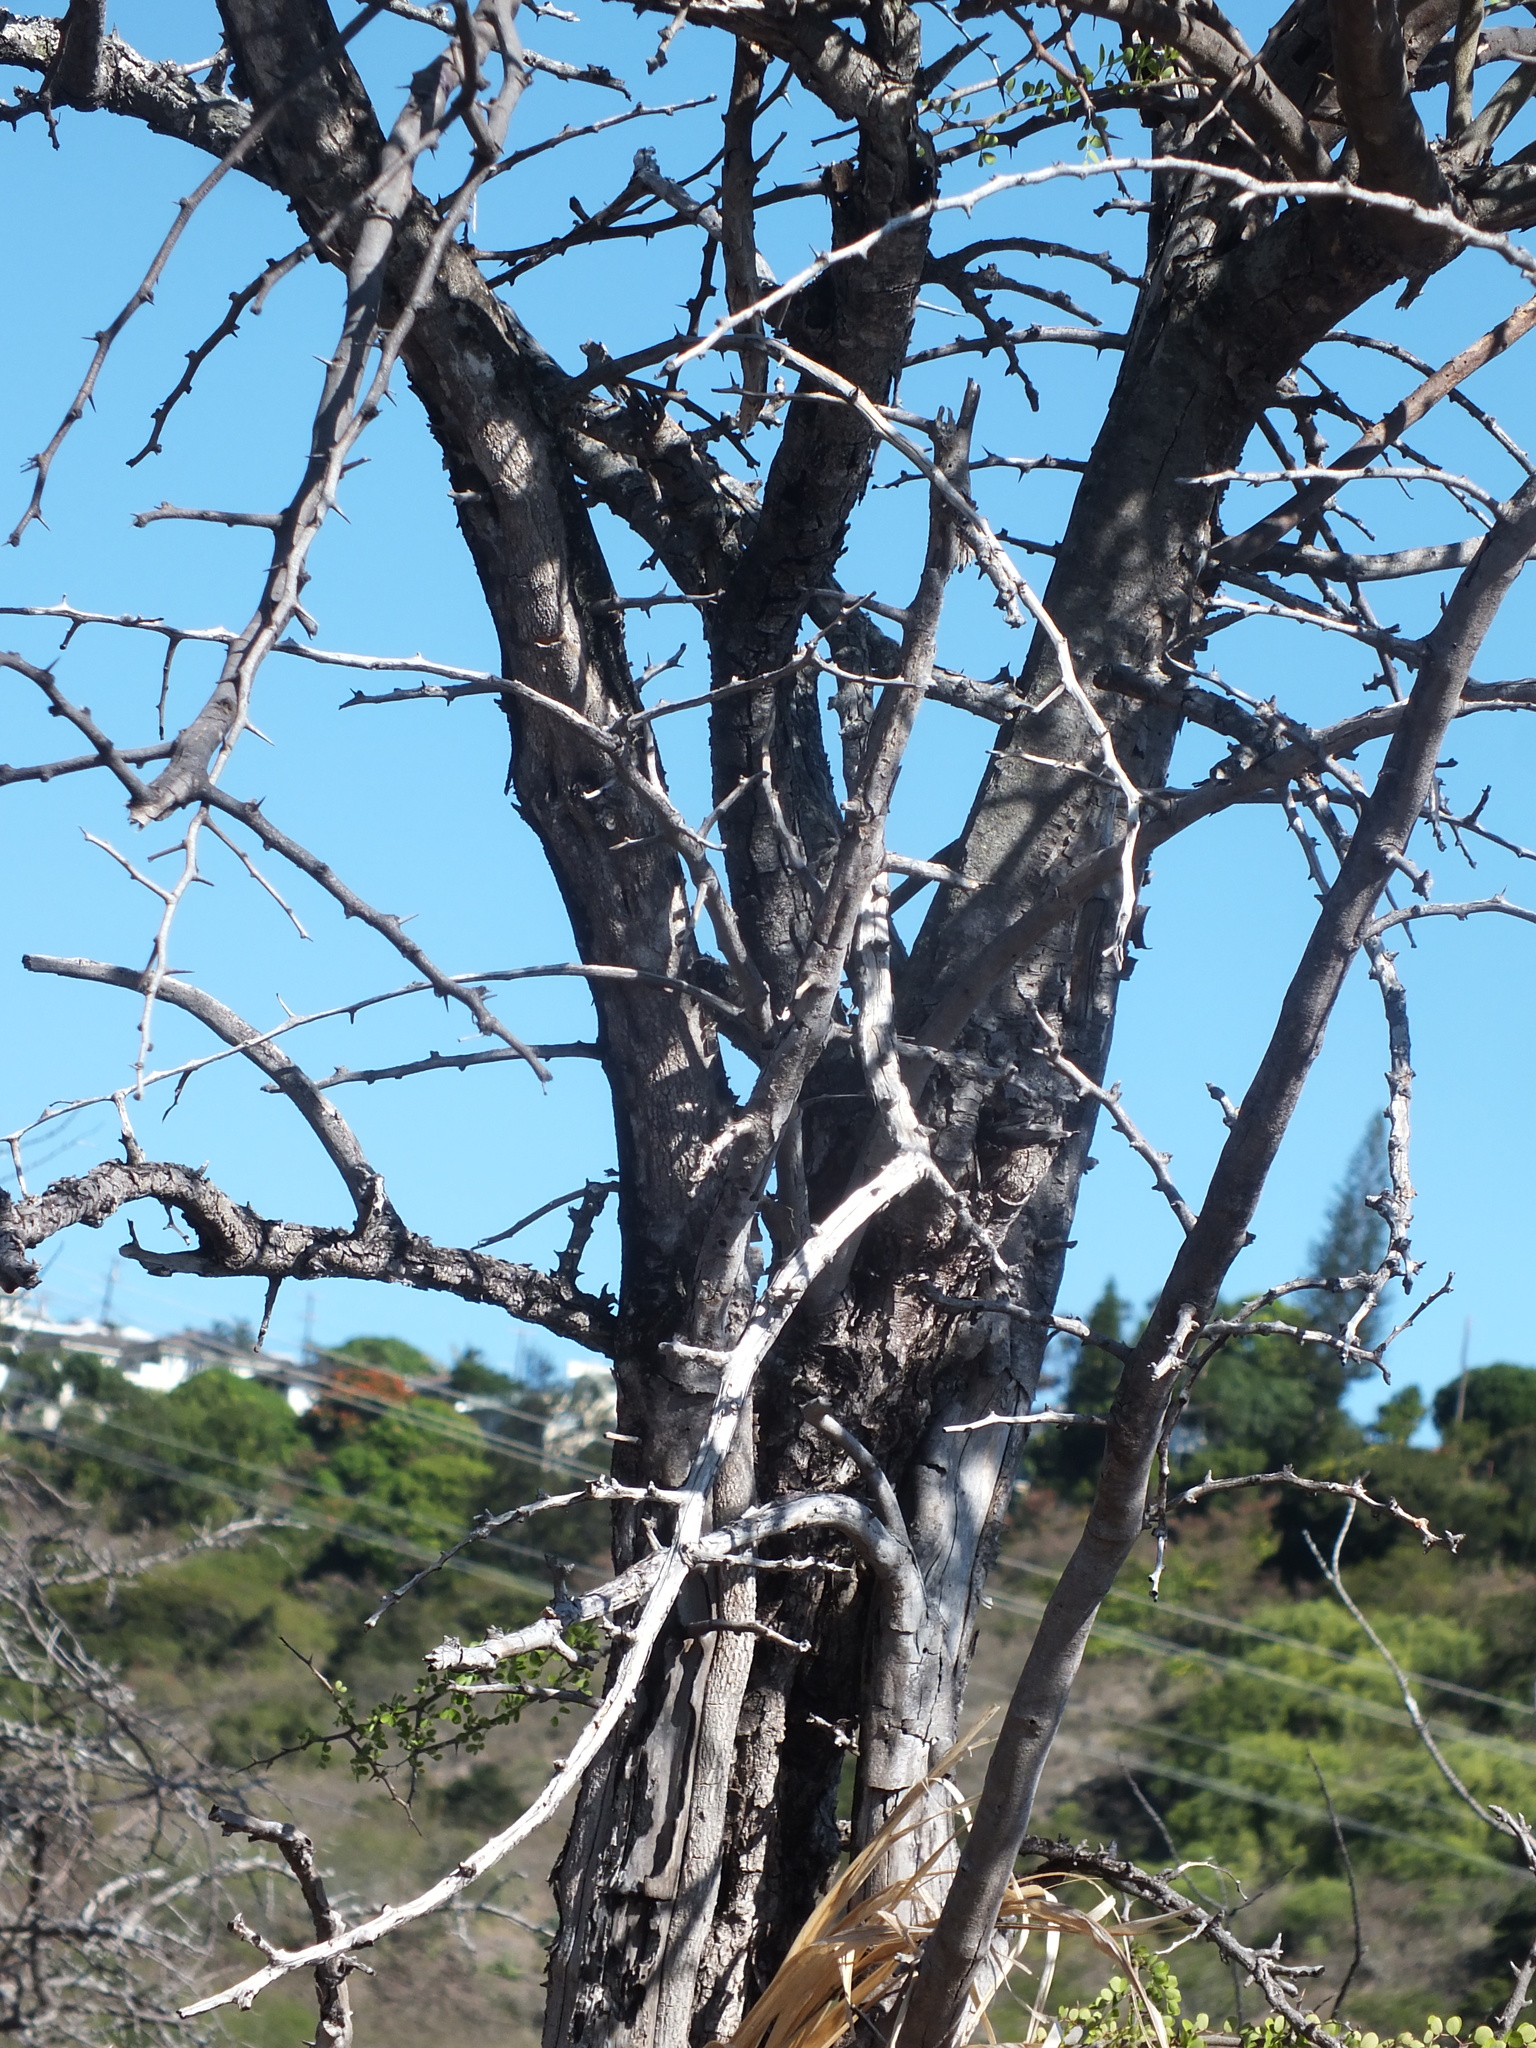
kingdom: Plantae
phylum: Tracheophyta
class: Magnoliopsida
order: Fabales
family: Fabaceae
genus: Haematoxylum
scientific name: Haematoxylum campechianum
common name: Logwood
